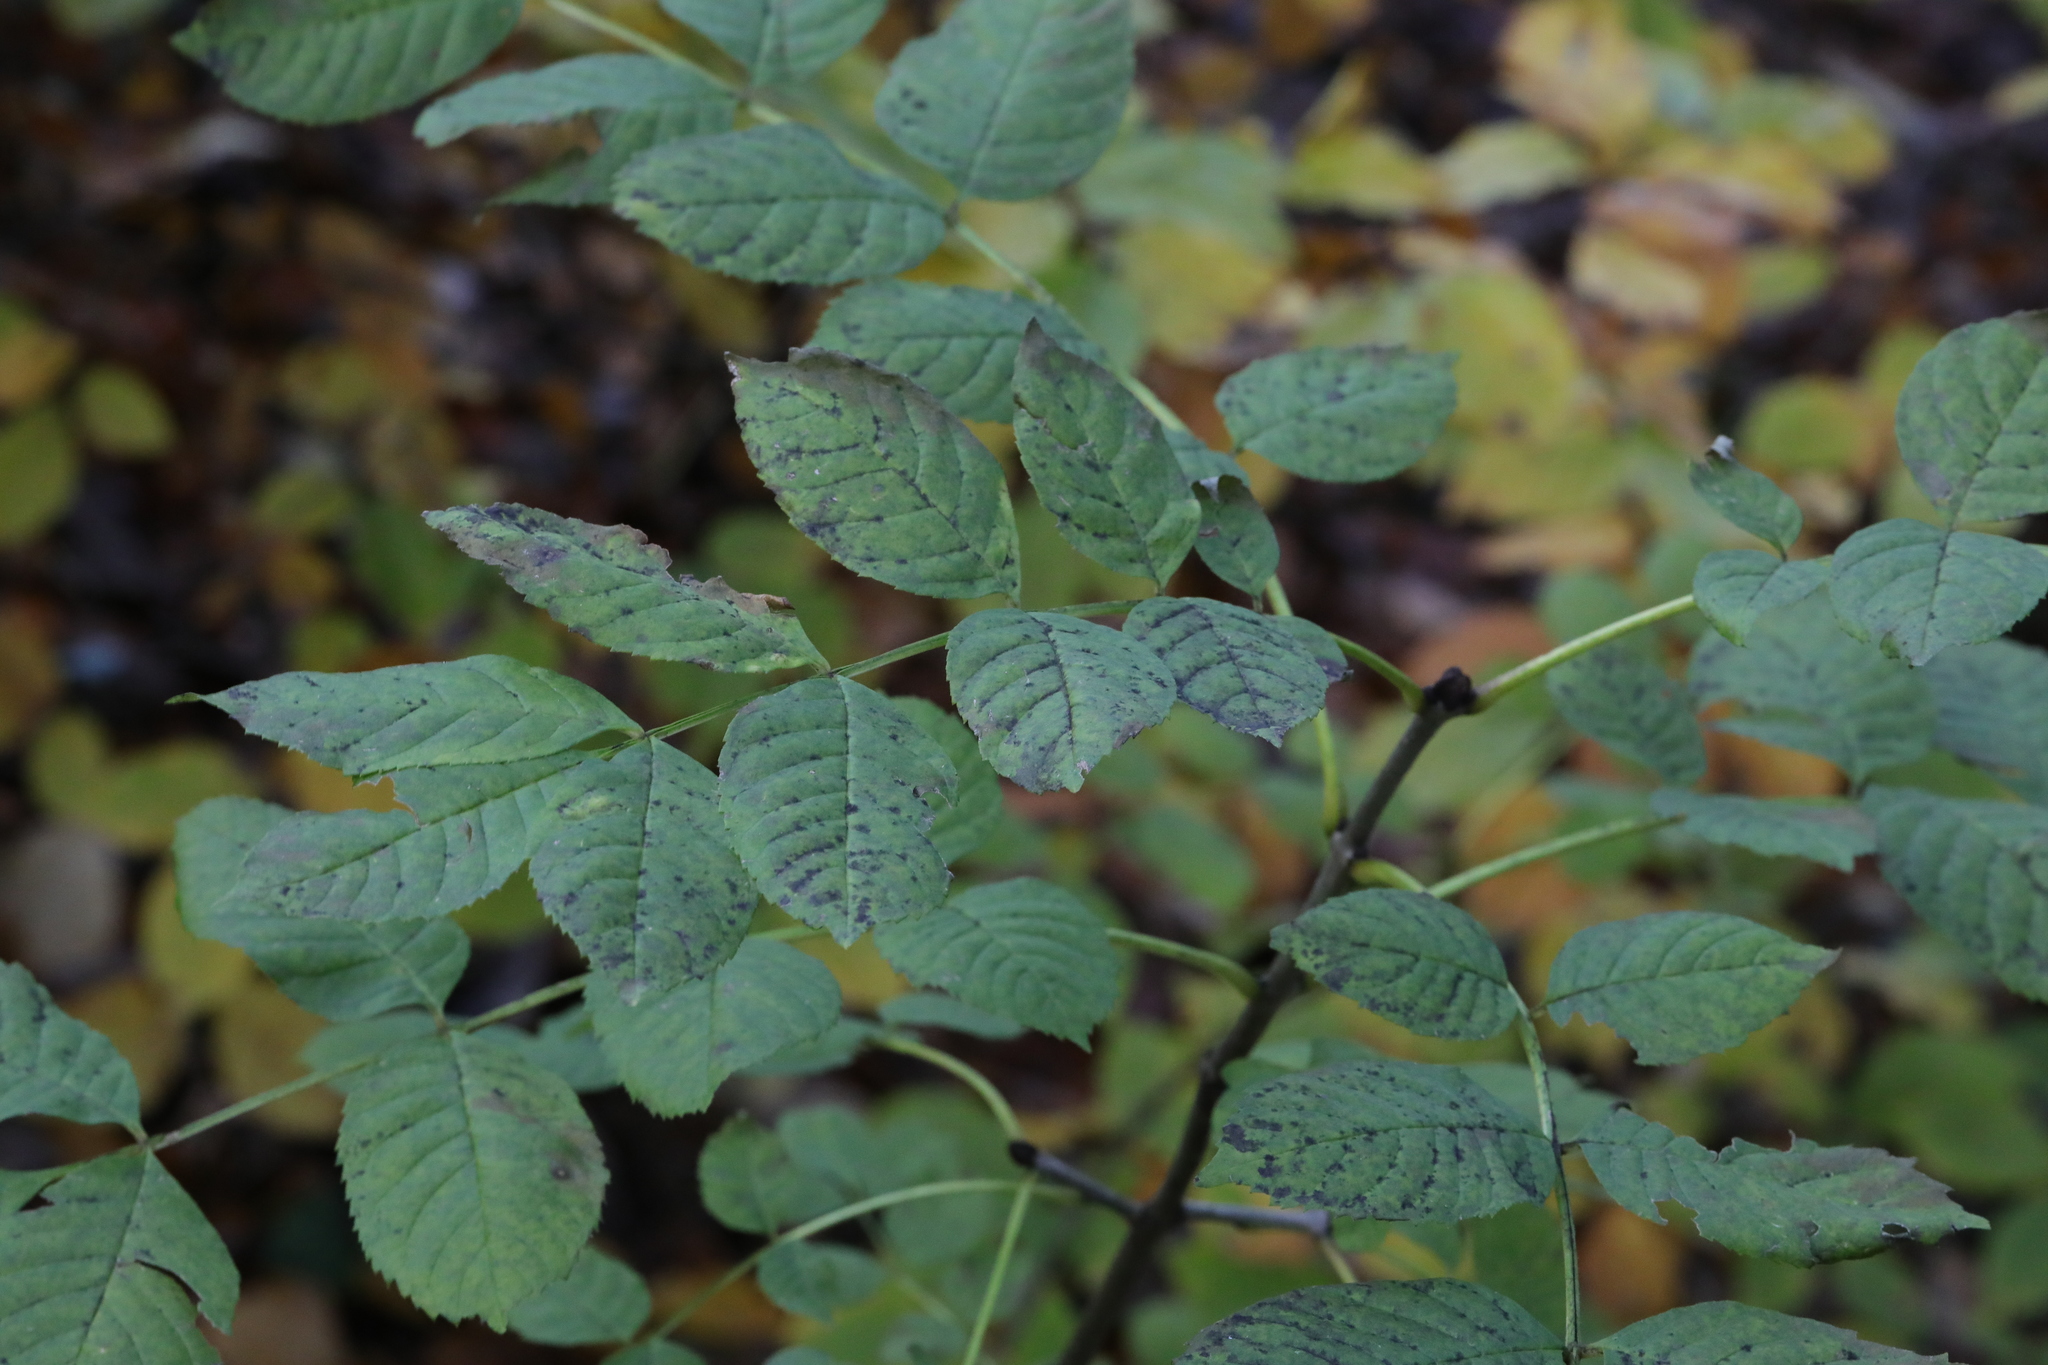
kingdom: Plantae
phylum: Tracheophyta
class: Magnoliopsida
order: Lamiales
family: Oleaceae
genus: Fraxinus
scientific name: Fraxinus excelsior
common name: European ash
